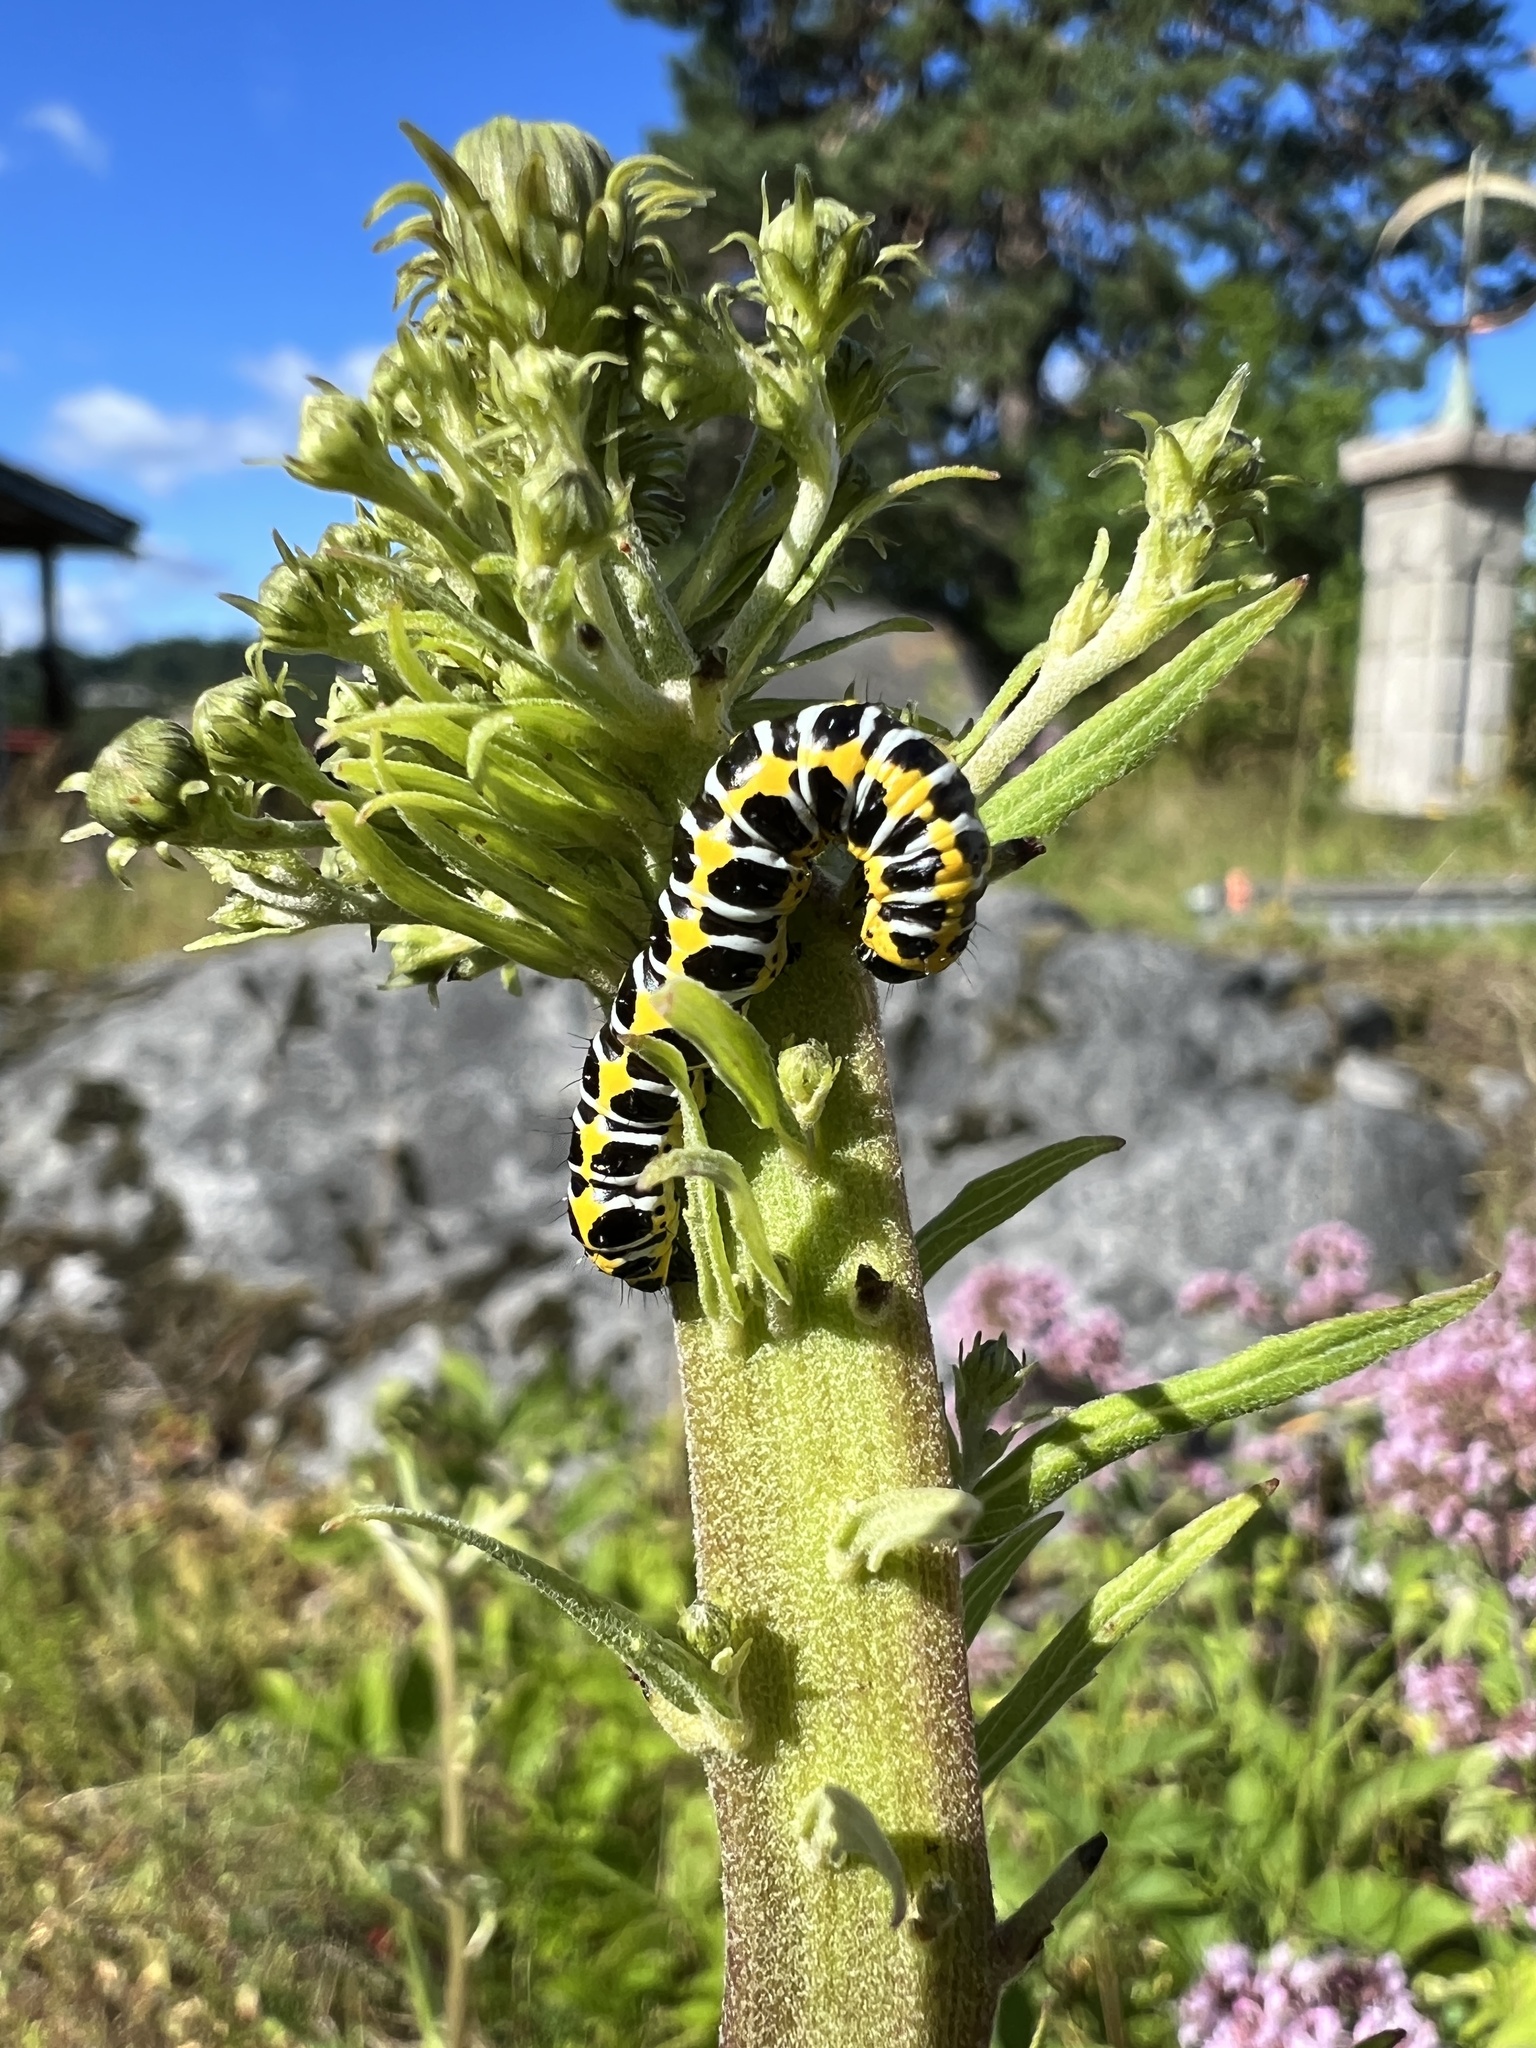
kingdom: Animalia
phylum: Arthropoda
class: Insecta
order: Lepidoptera
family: Noctuidae
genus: Cucullia
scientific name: Cucullia lactucae
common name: Lettuce shark
